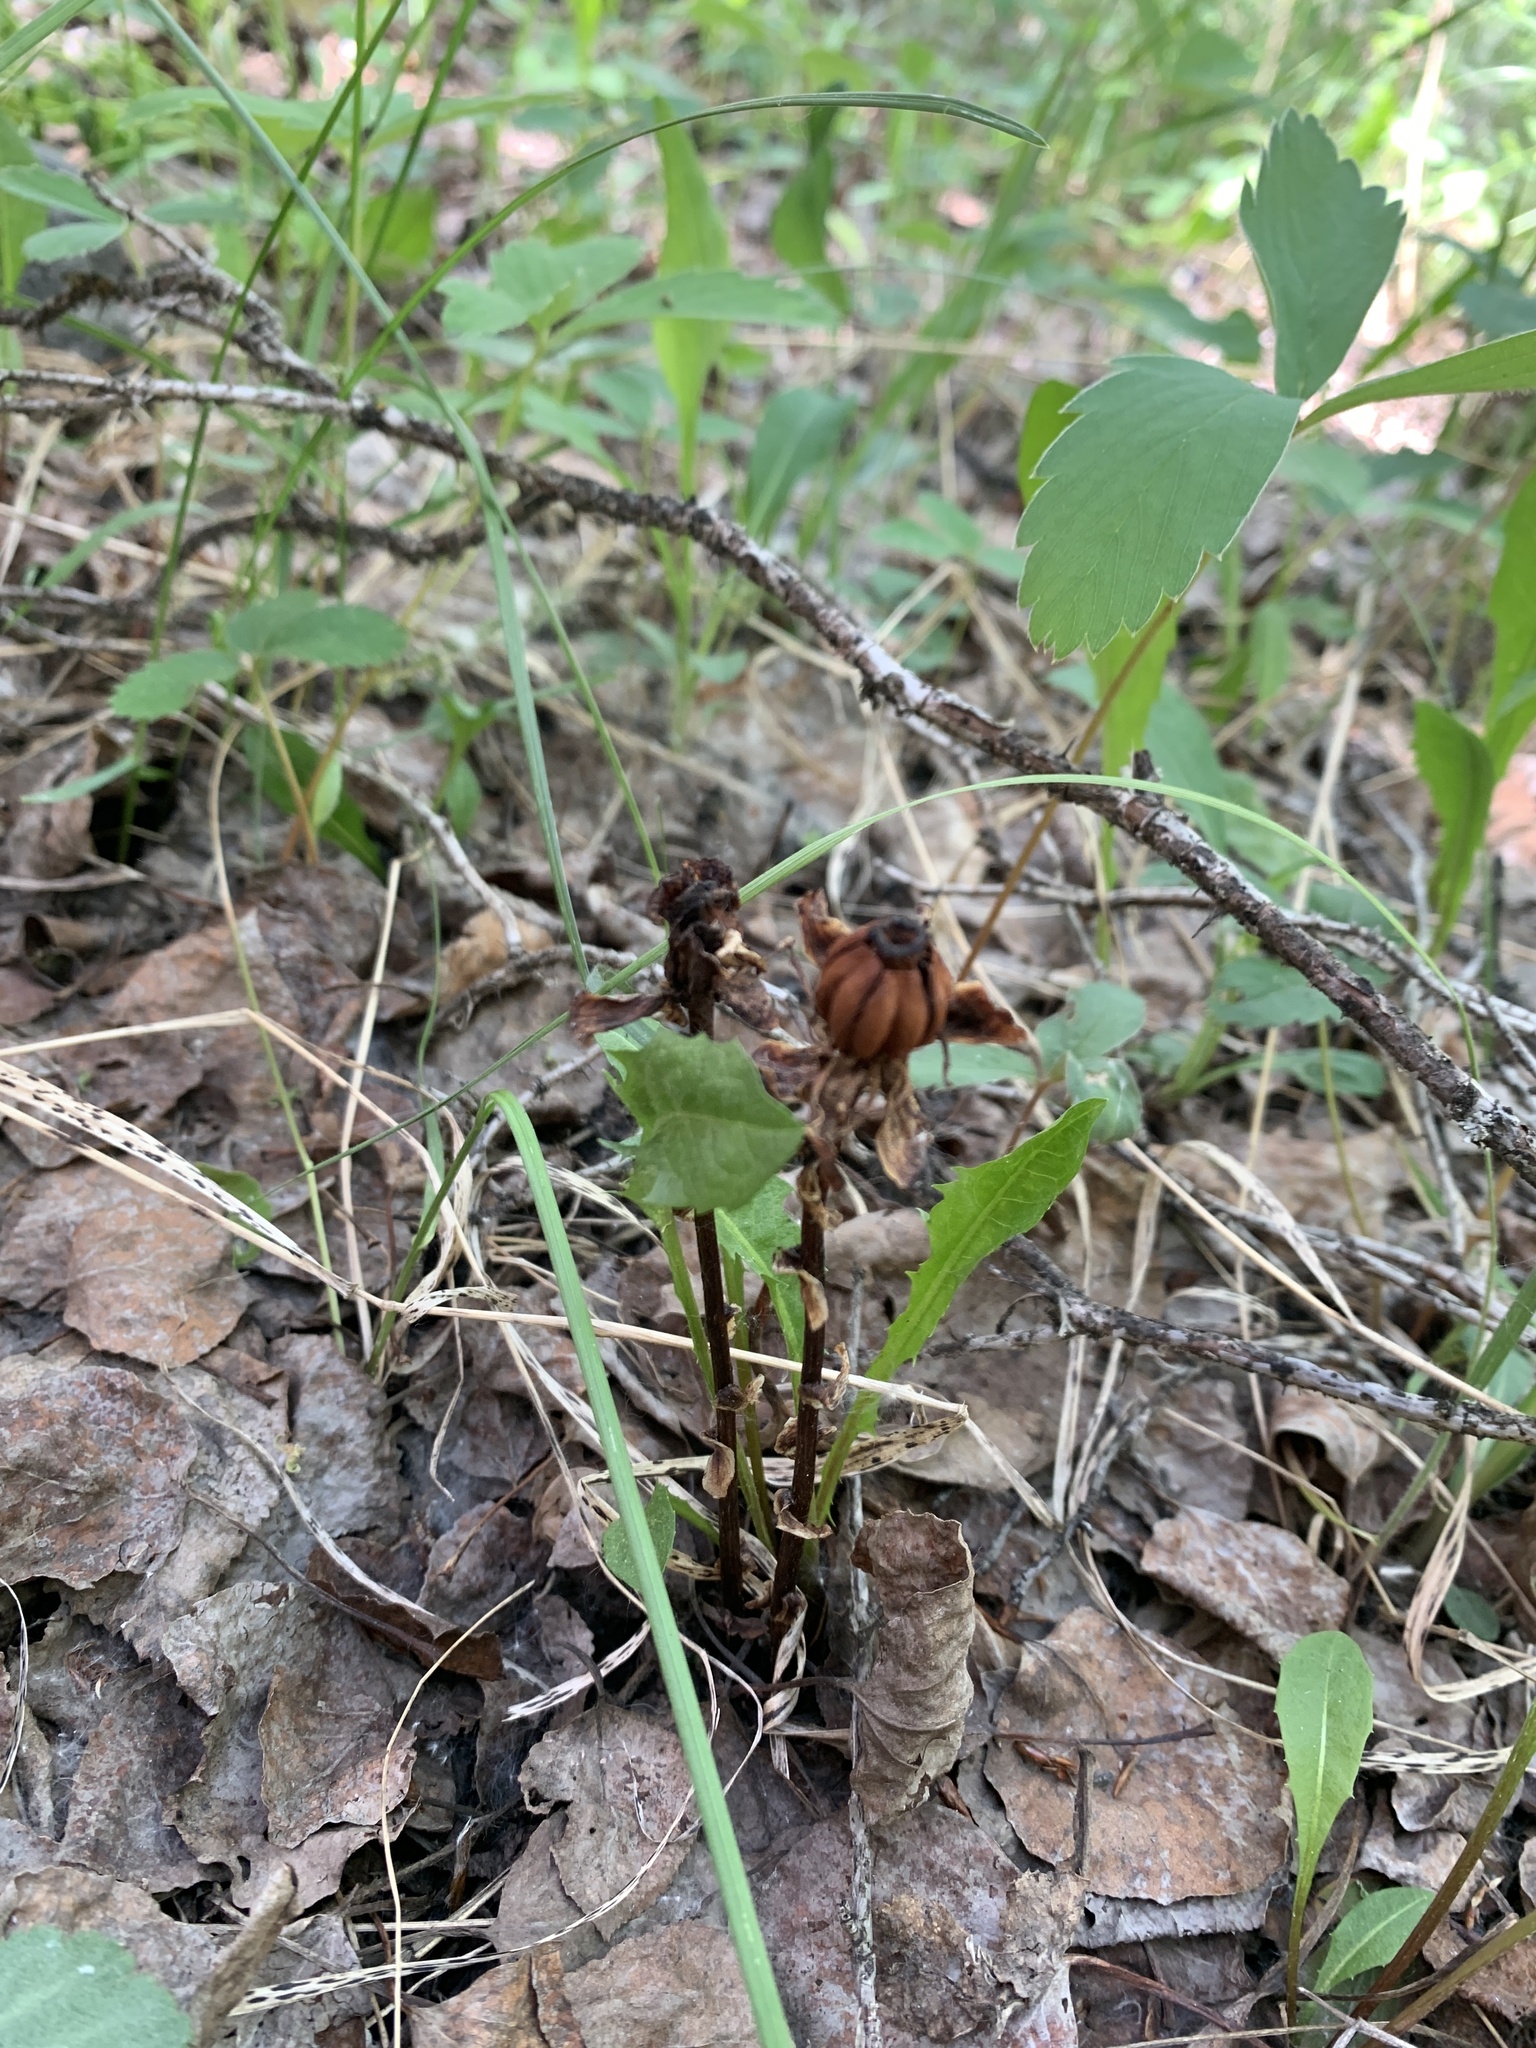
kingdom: Plantae
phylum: Tracheophyta
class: Magnoliopsida
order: Ericales
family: Ericaceae
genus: Monotropa
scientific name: Monotropa uniflora
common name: Convulsion root
